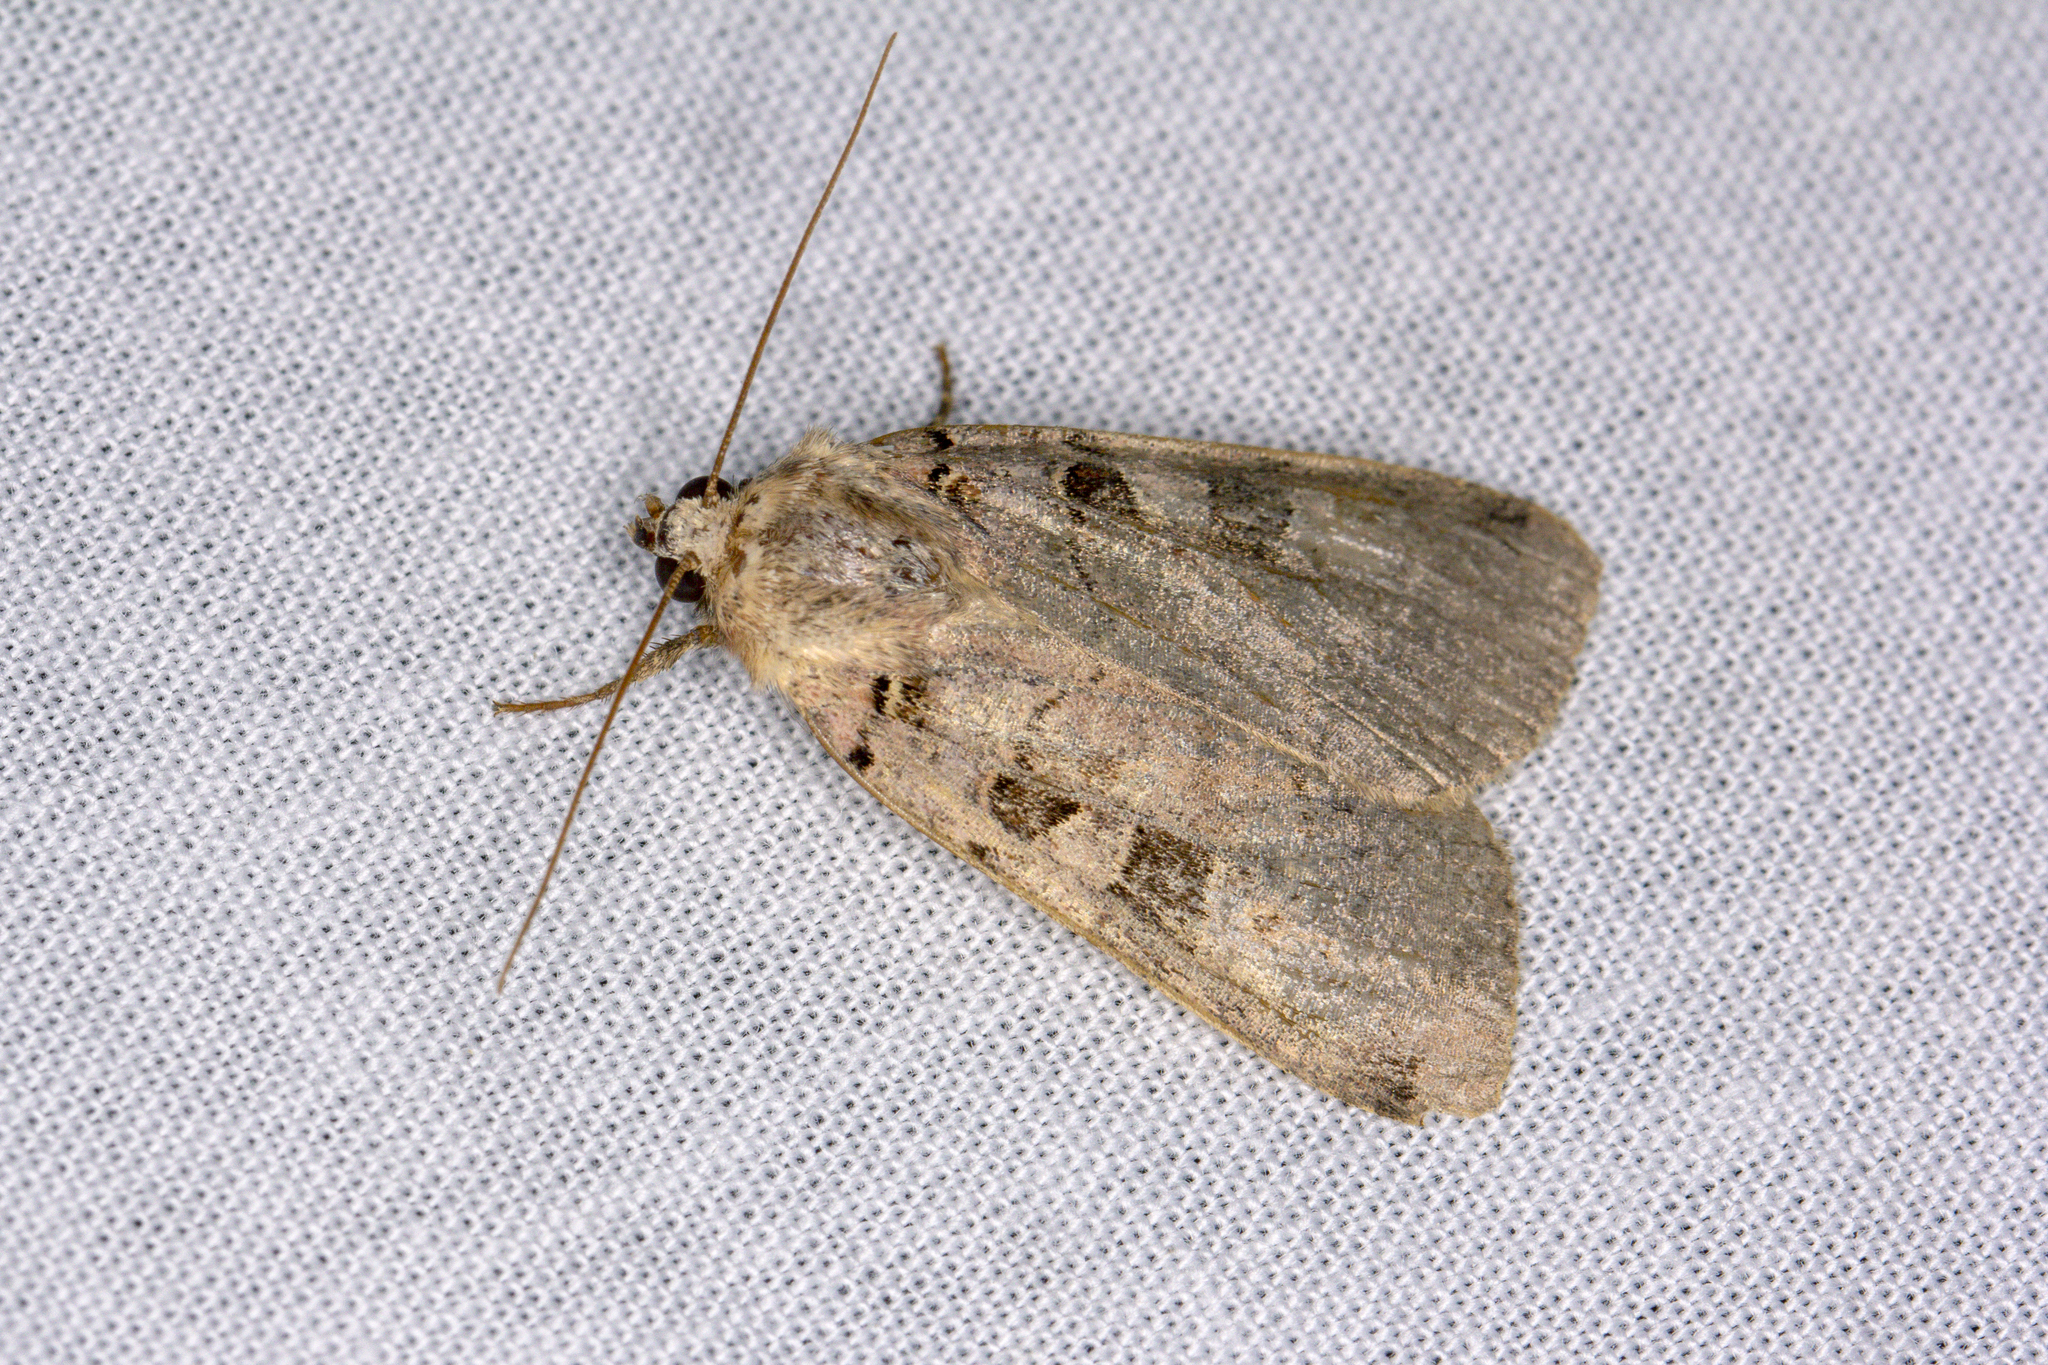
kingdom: Animalia
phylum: Arthropoda
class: Insecta
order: Lepidoptera
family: Noctuidae
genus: Xestia
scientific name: Xestia triangulum
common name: Double square-spot
